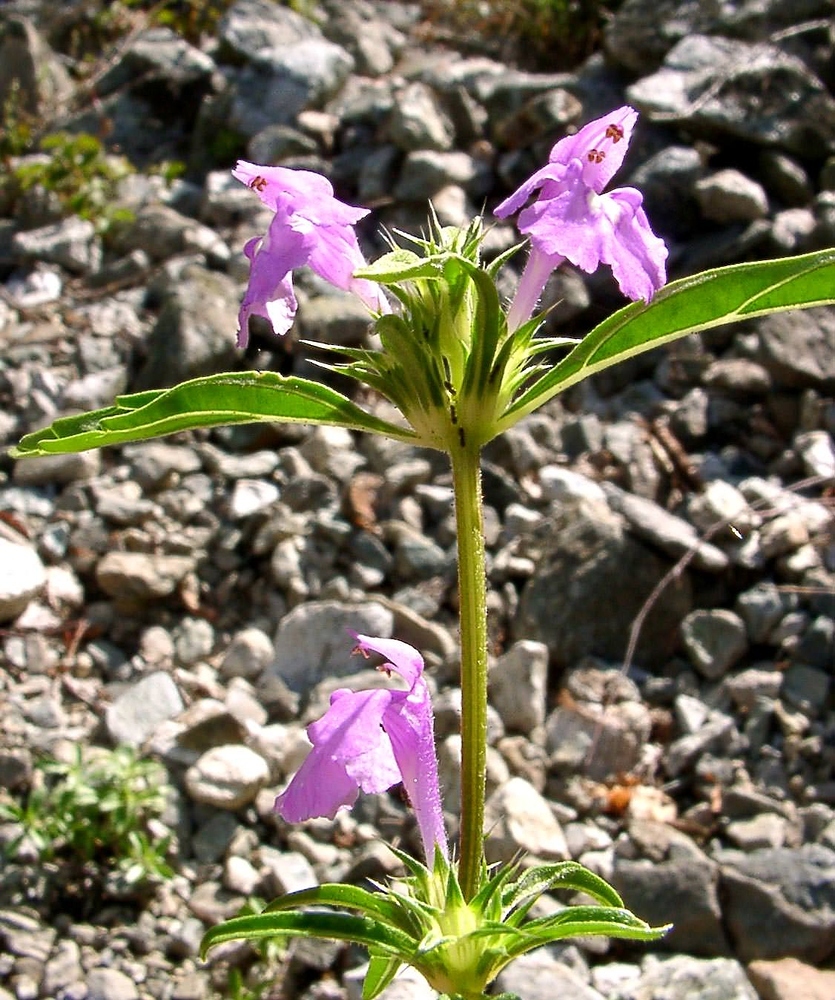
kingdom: Plantae
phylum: Tracheophyta
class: Magnoliopsida
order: Lamiales
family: Lamiaceae
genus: Galeopsis
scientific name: Galeopsis angustifolia
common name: Red hemp-nettle
